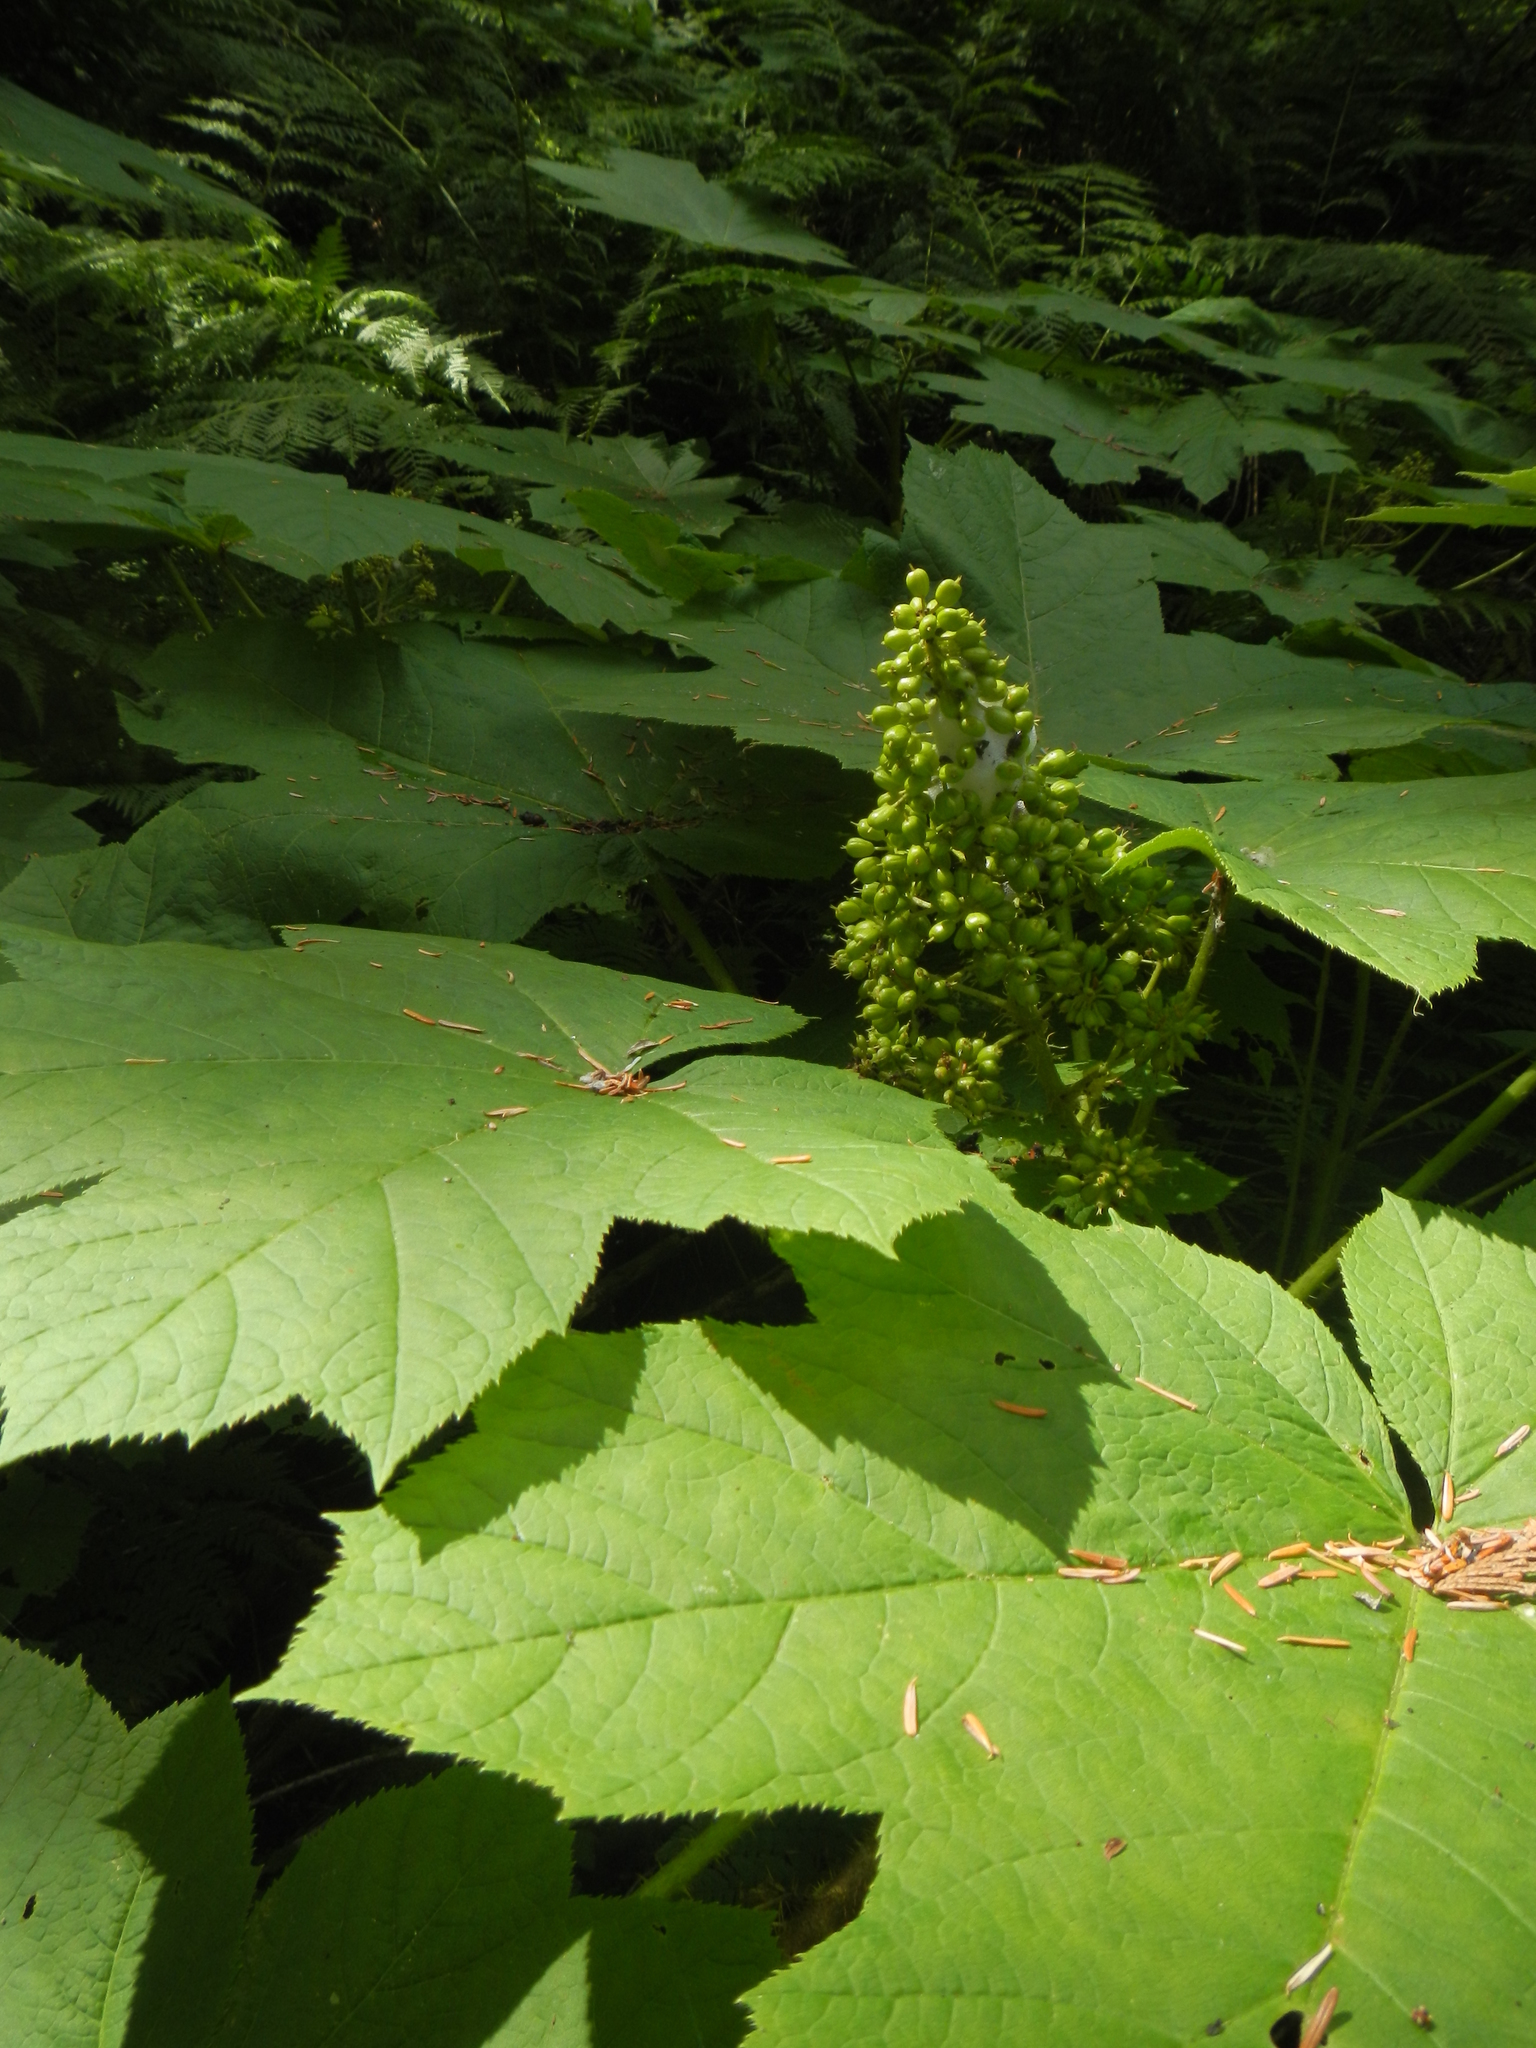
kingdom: Plantae
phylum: Tracheophyta
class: Magnoliopsida
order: Apiales
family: Araliaceae
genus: Oplopanax
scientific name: Oplopanax horridus
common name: Devil's walking-stick
